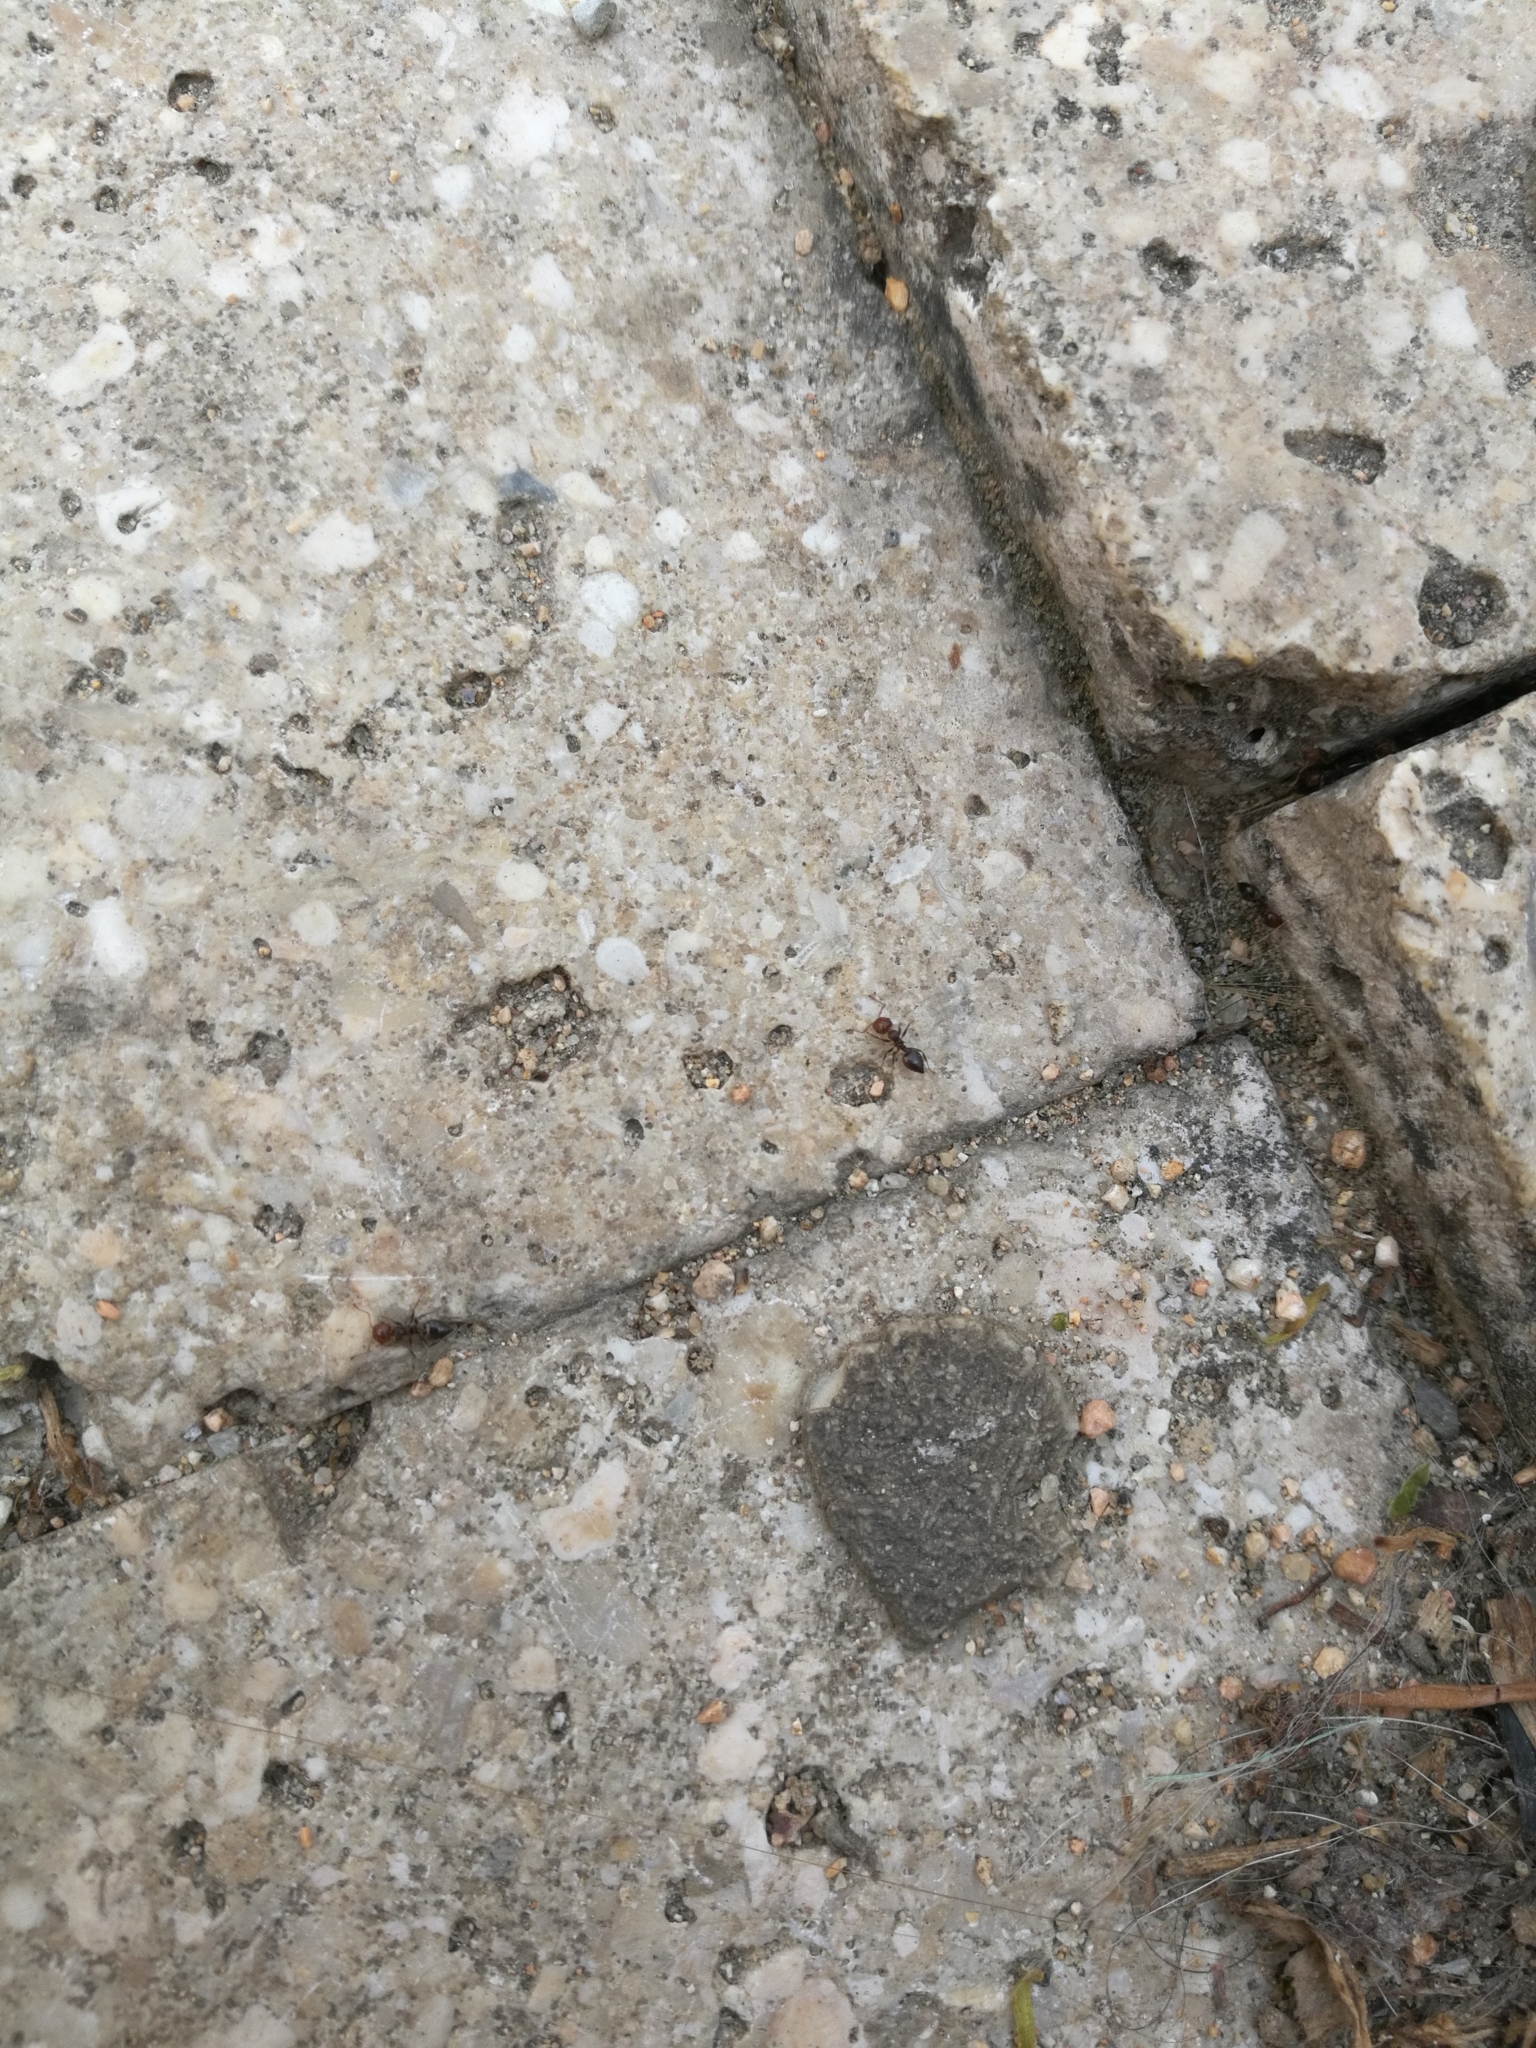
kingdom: Animalia
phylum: Arthropoda
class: Insecta
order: Hymenoptera
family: Formicidae
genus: Crematogaster
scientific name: Crematogaster scutellaris
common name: Fourmi du liège
